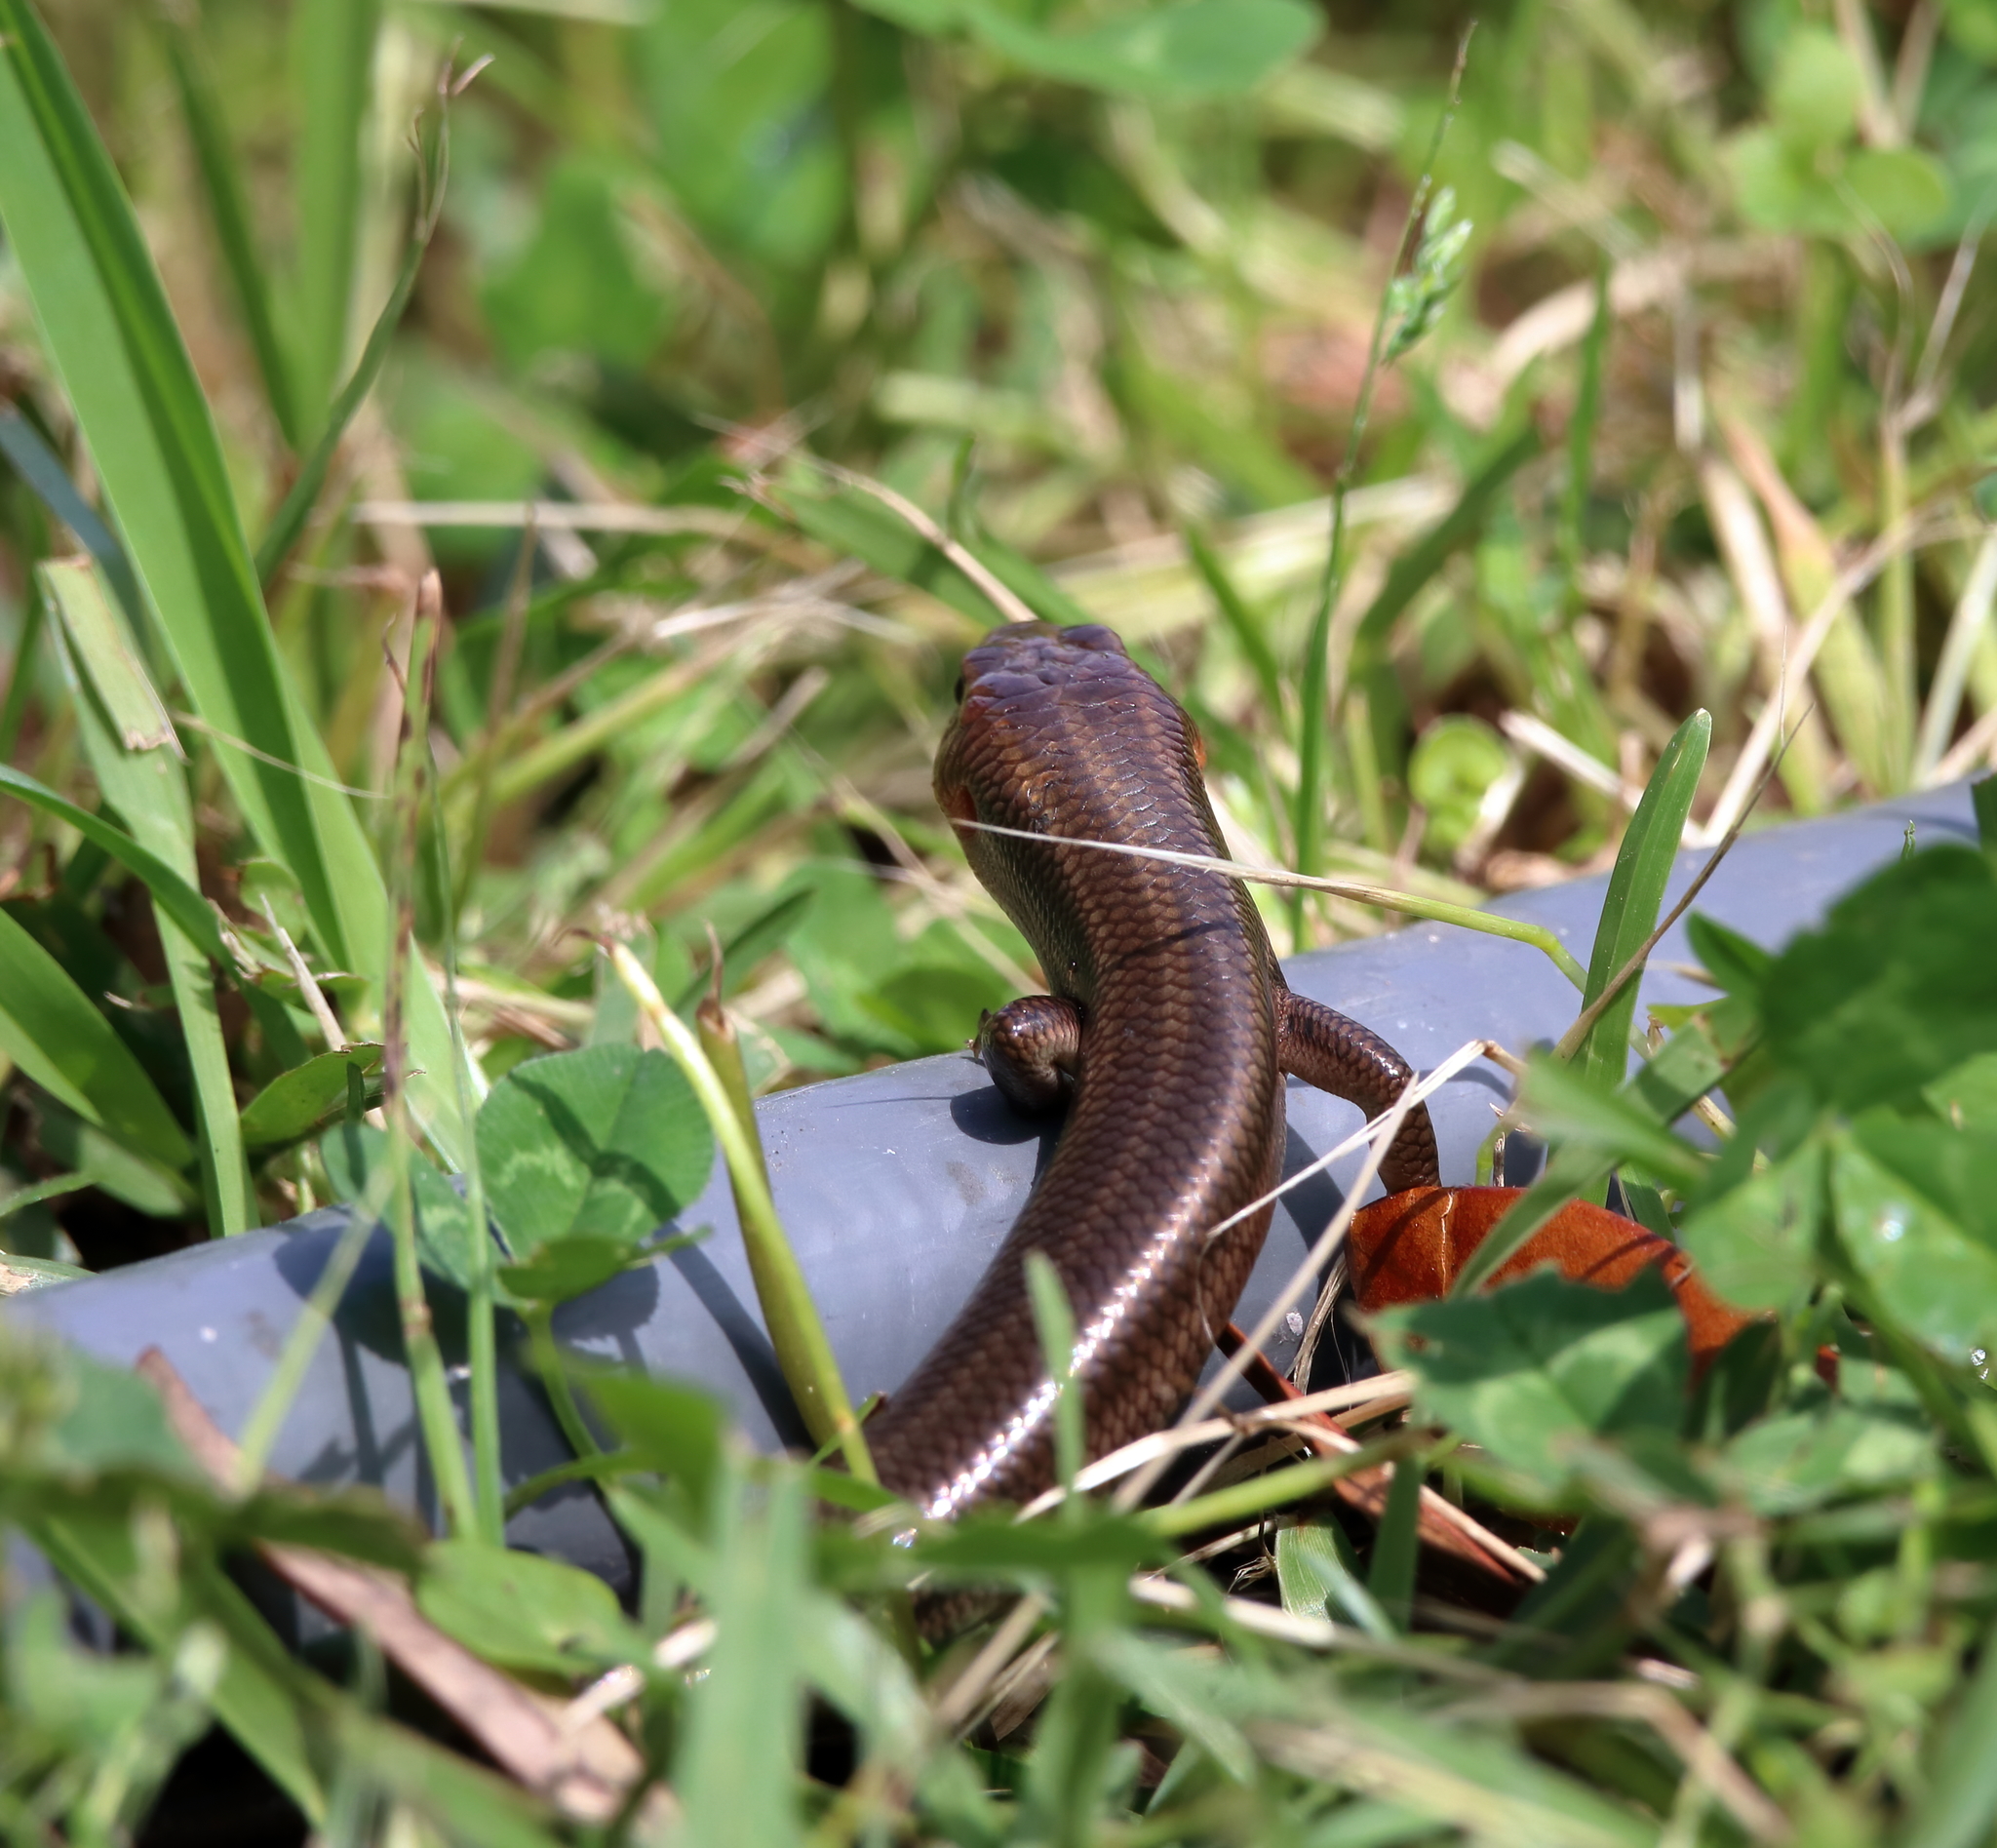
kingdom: Animalia
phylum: Chordata
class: Squamata
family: Scincidae
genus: Plestiodon
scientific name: Plestiodon fasciatus
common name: Five-lined skink
